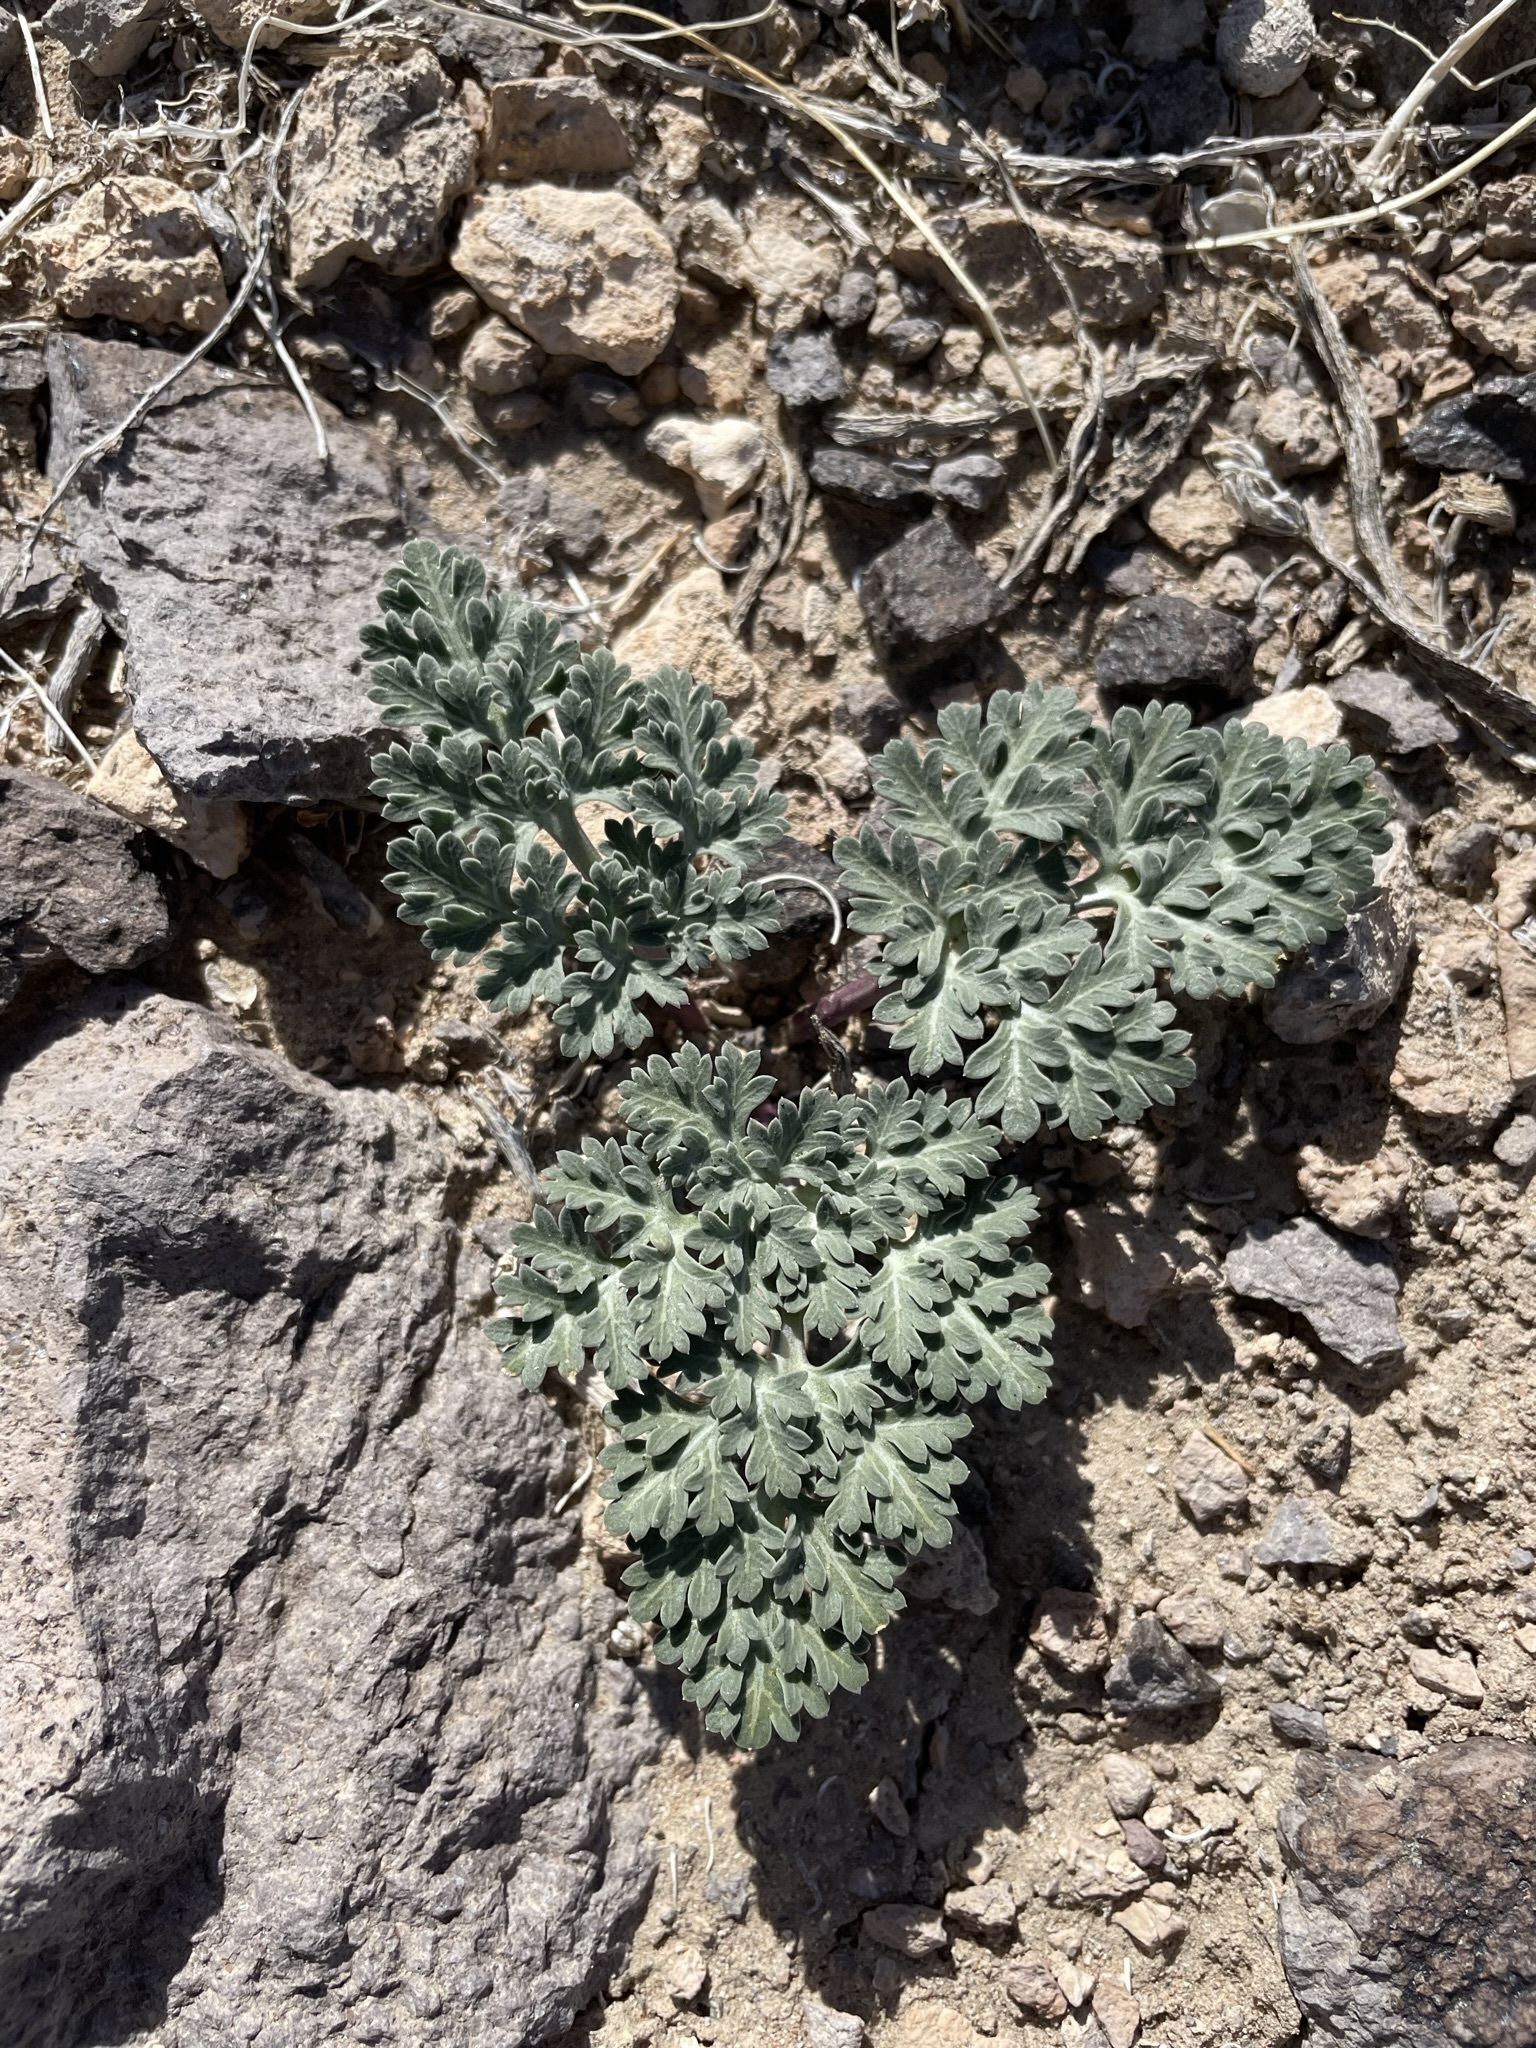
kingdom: Plantae
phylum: Tracheophyta
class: Magnoliopsida
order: Apiales
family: Apiaceae
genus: Cymopterus
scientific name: Cymopterus globosus
